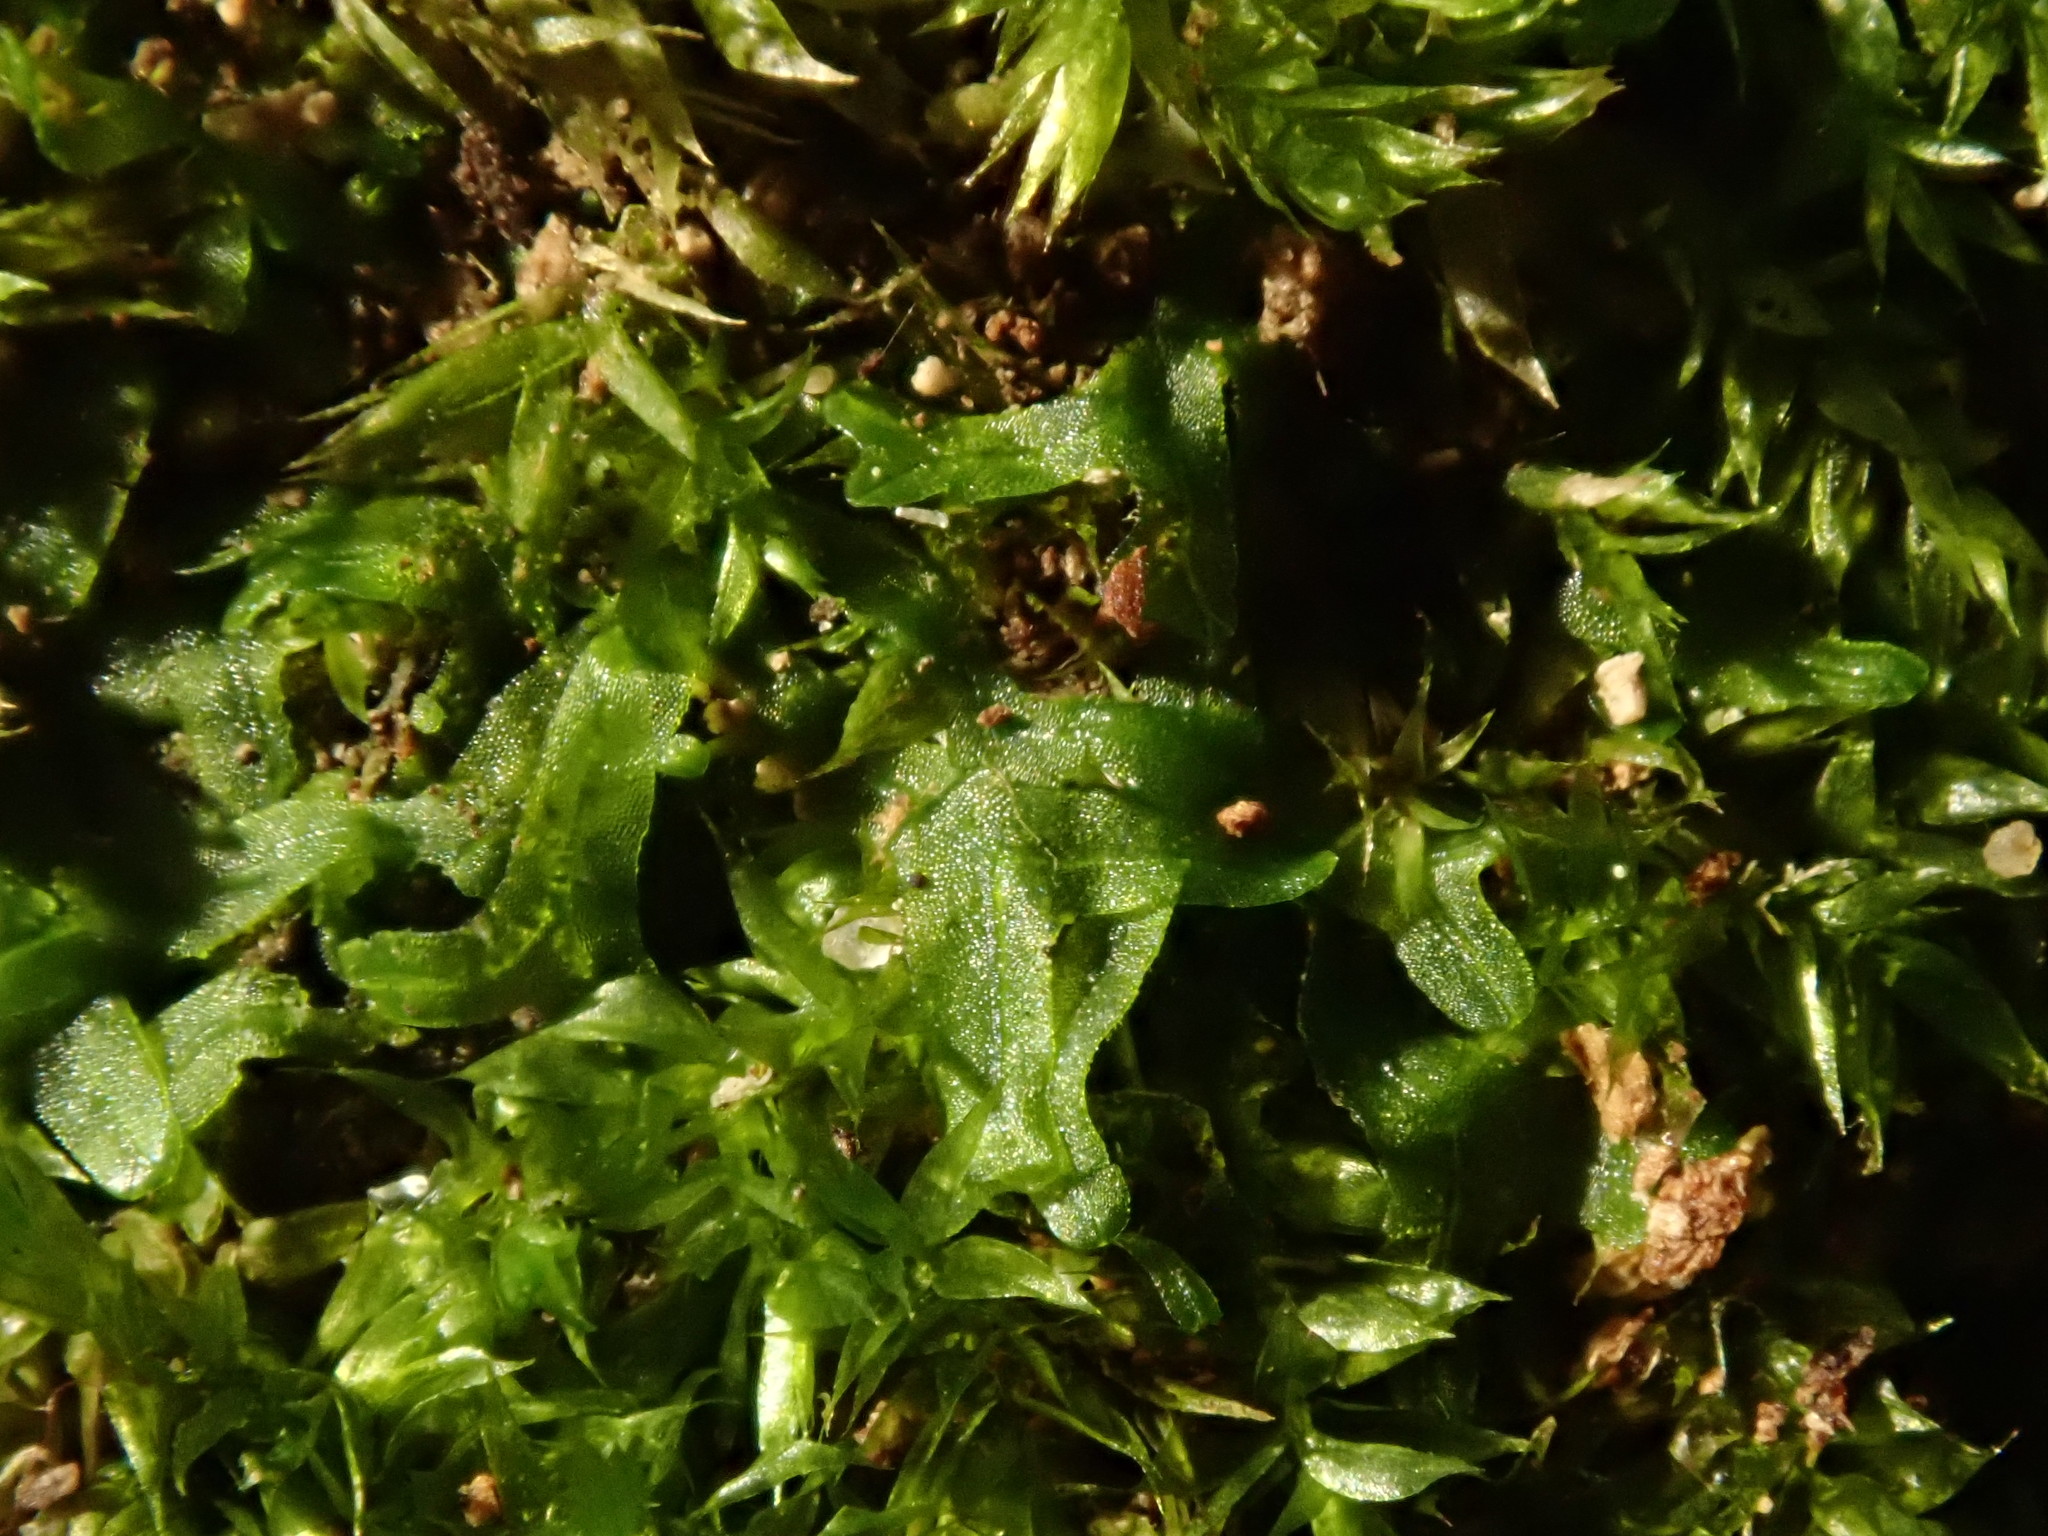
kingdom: Plantae
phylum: Marchantiophyta
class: Jungermanniopsida
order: Metzgeriales
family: Metzgeriaceae
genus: Metzgeria
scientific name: Metzgeria furcata
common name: Forked veilwort
